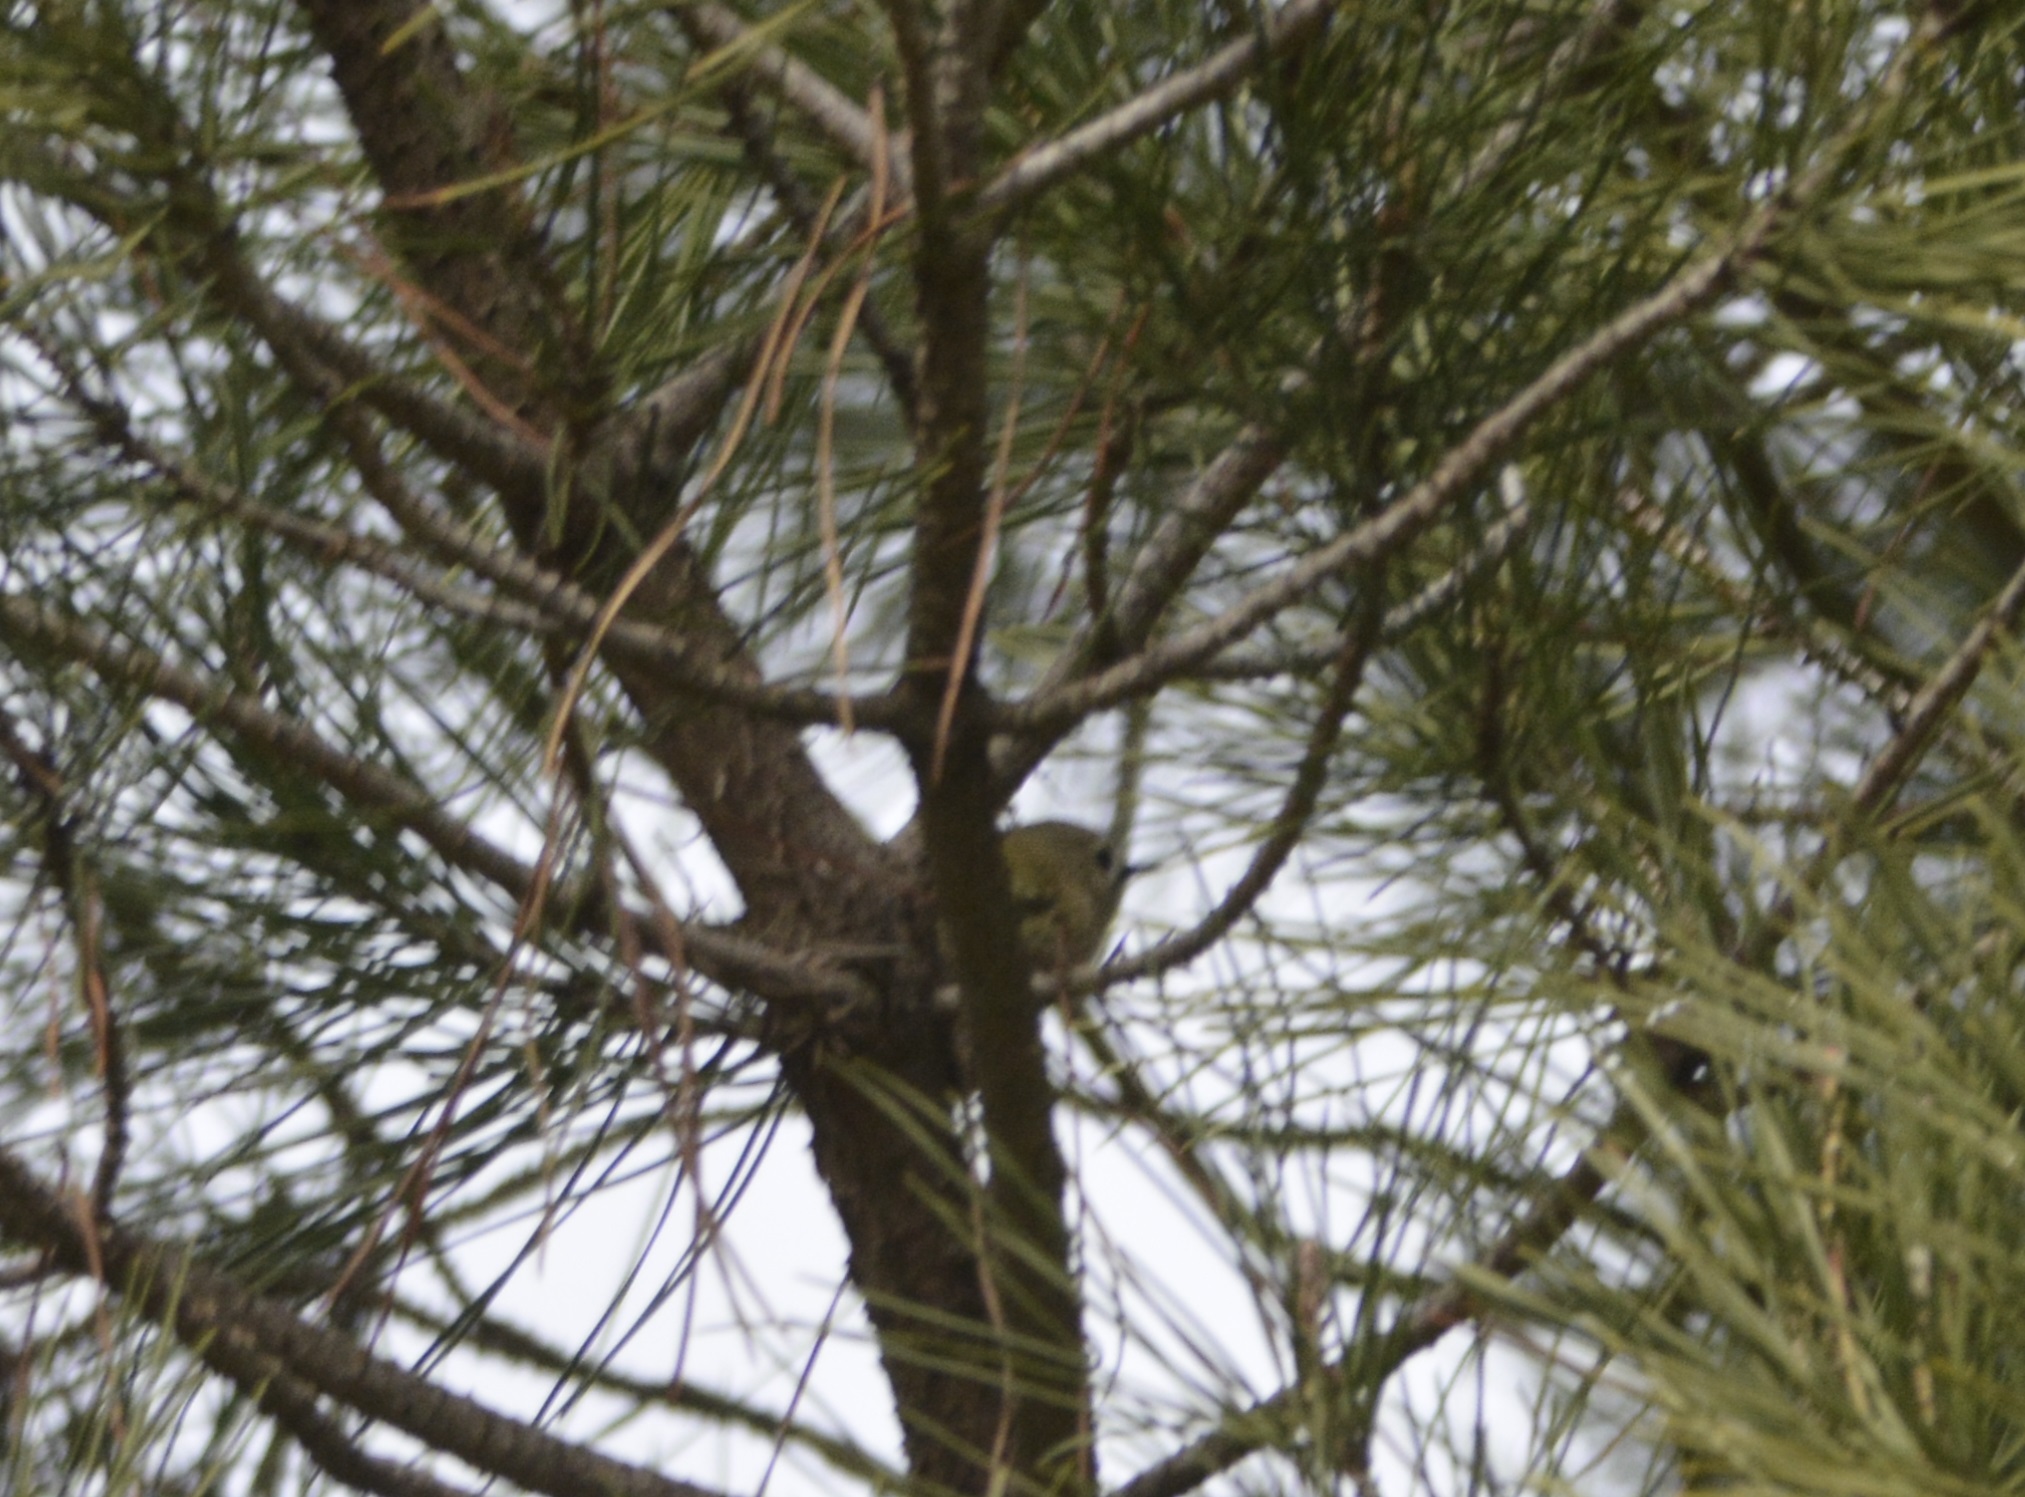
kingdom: Animalia
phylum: Chordata
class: Aves
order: Passeriformes
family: Regulidae
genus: Regulus
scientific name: Regulus regulus
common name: Goldcrest
